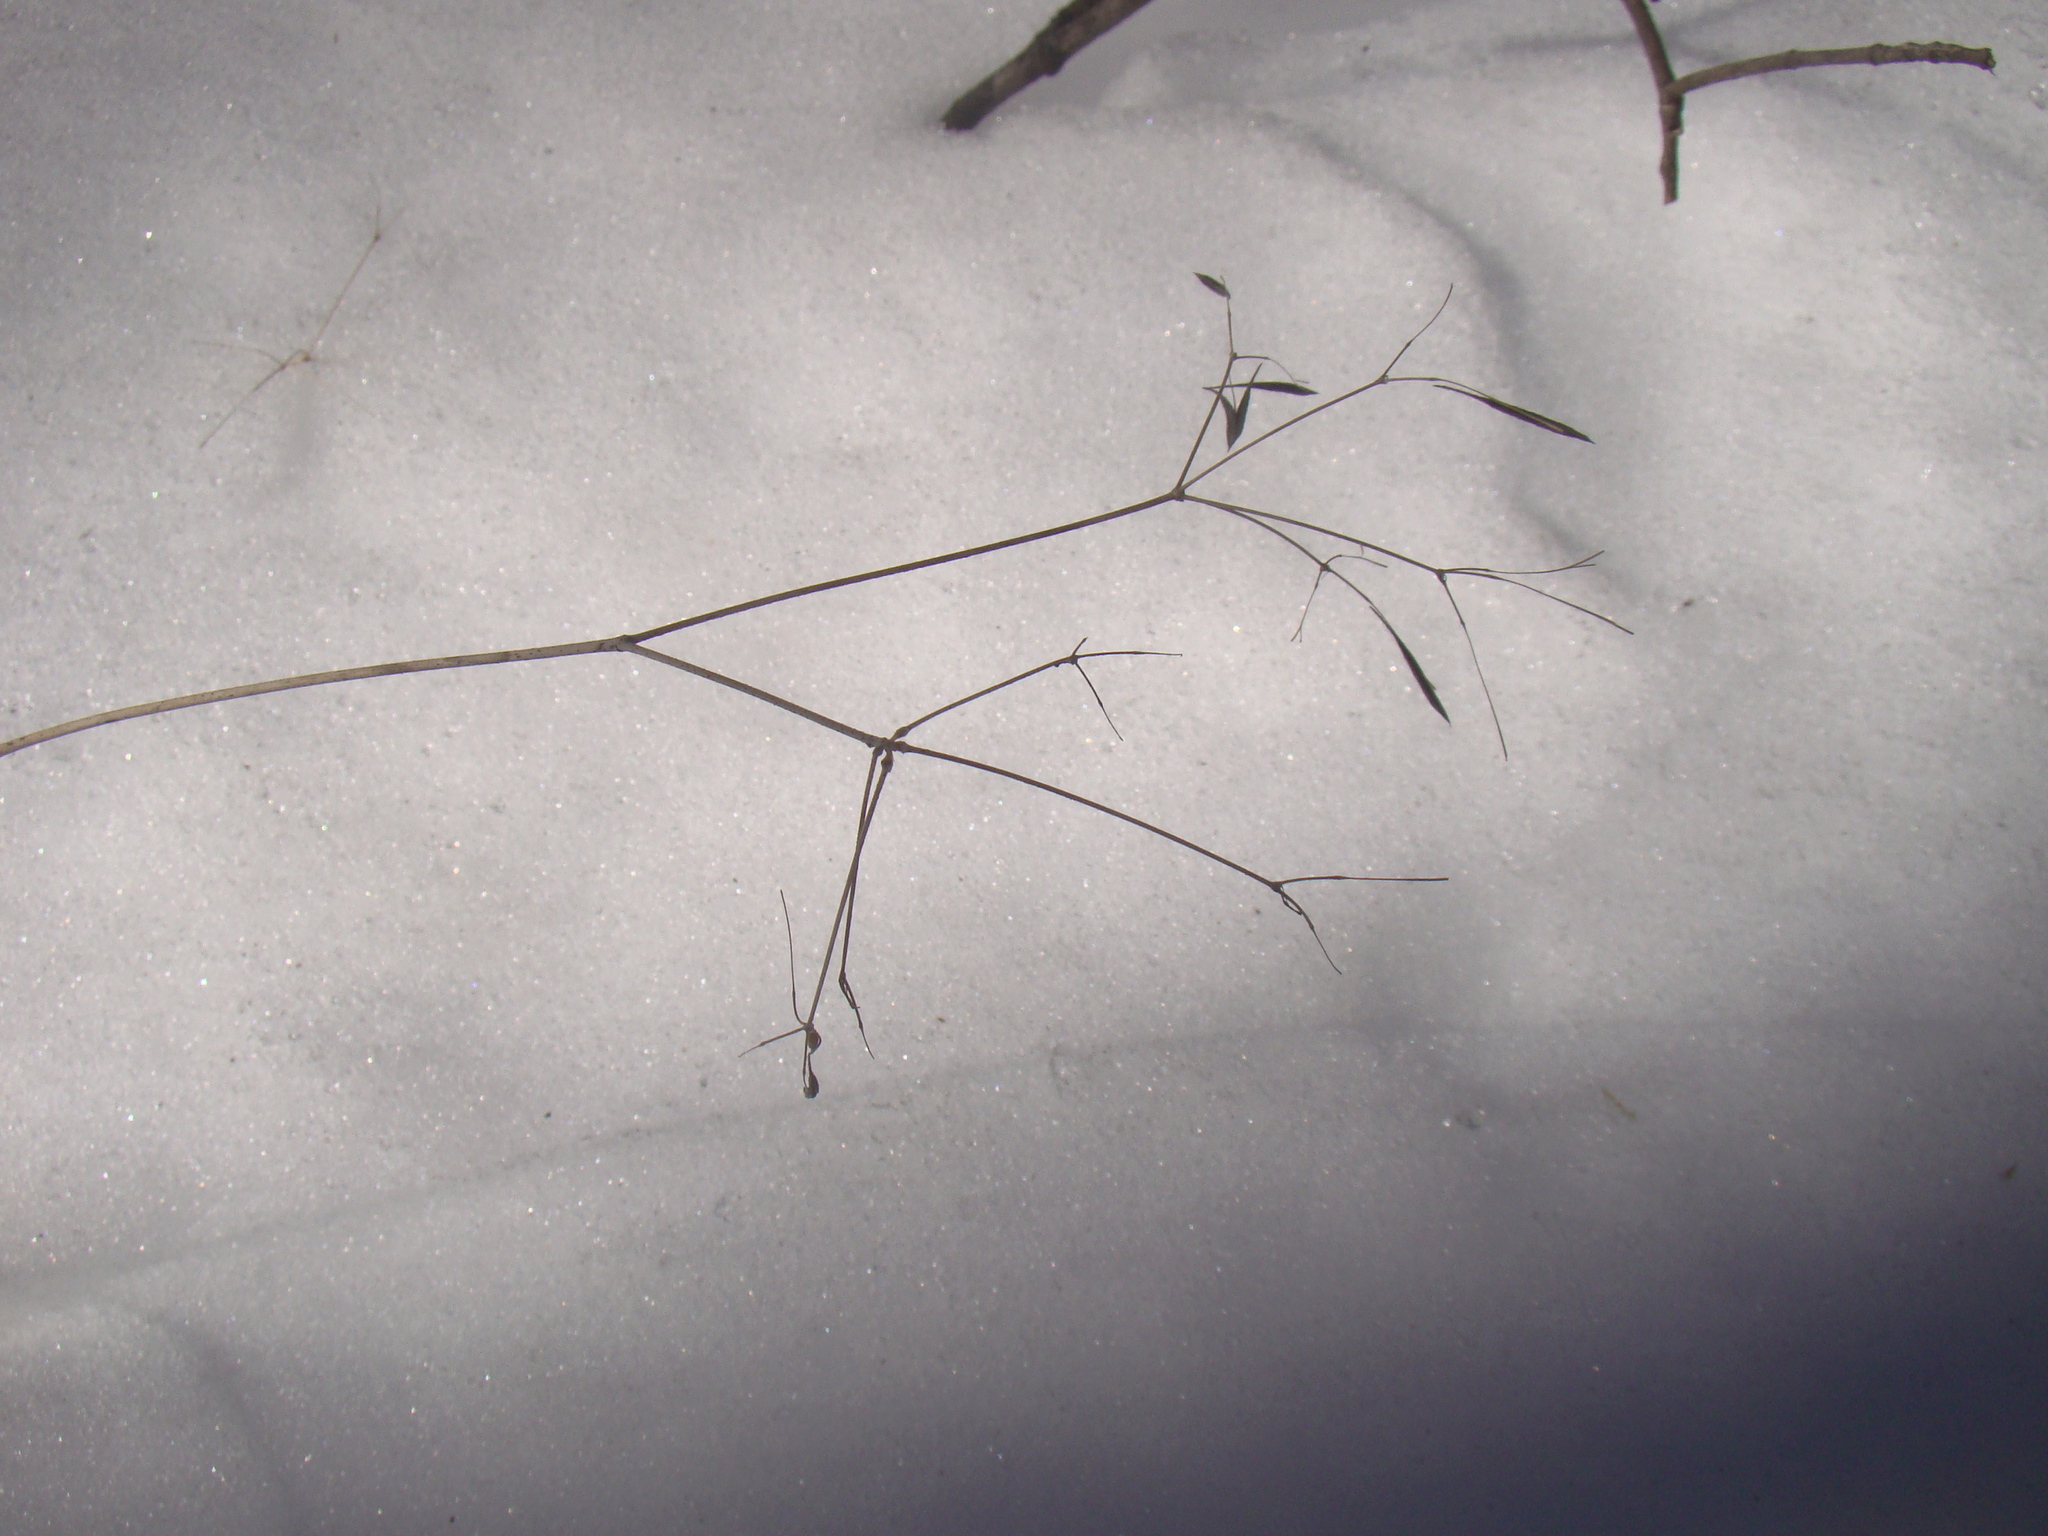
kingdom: Plantae
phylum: Tracheophyta
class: Magnoliopsida
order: Apiales
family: Apiaceae
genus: Osmorhiza
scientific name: Osmorhiza longistylis
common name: Smooth sweet cicely
